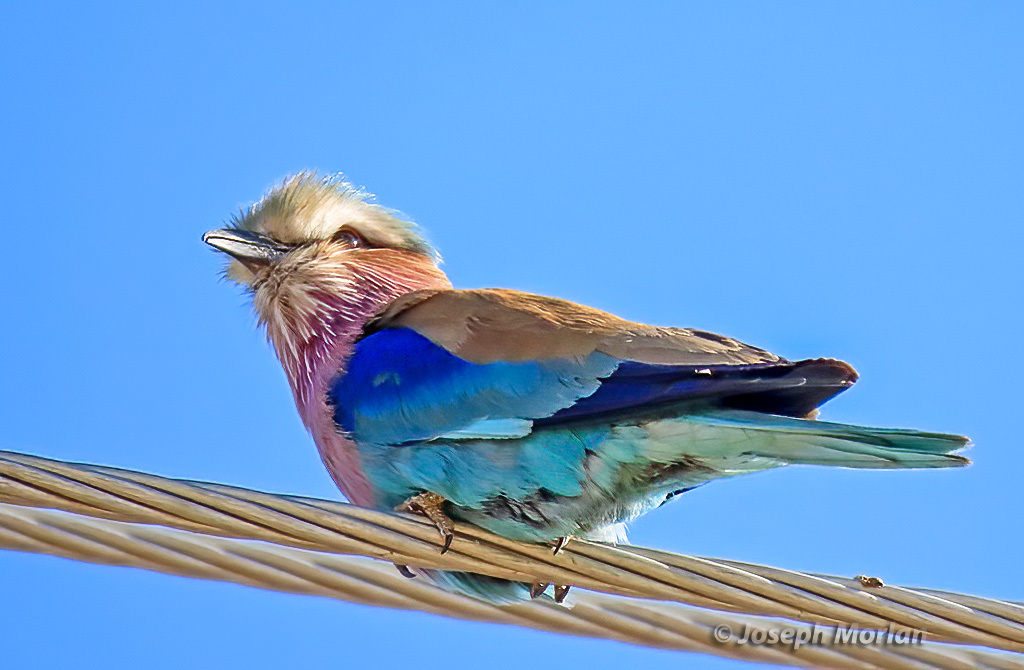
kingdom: Animalia
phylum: Chordata
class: Aves
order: Coraciiformes
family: Coraciidae
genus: Coracias
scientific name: Coracias caudatus
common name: Lilac-breasted roller
